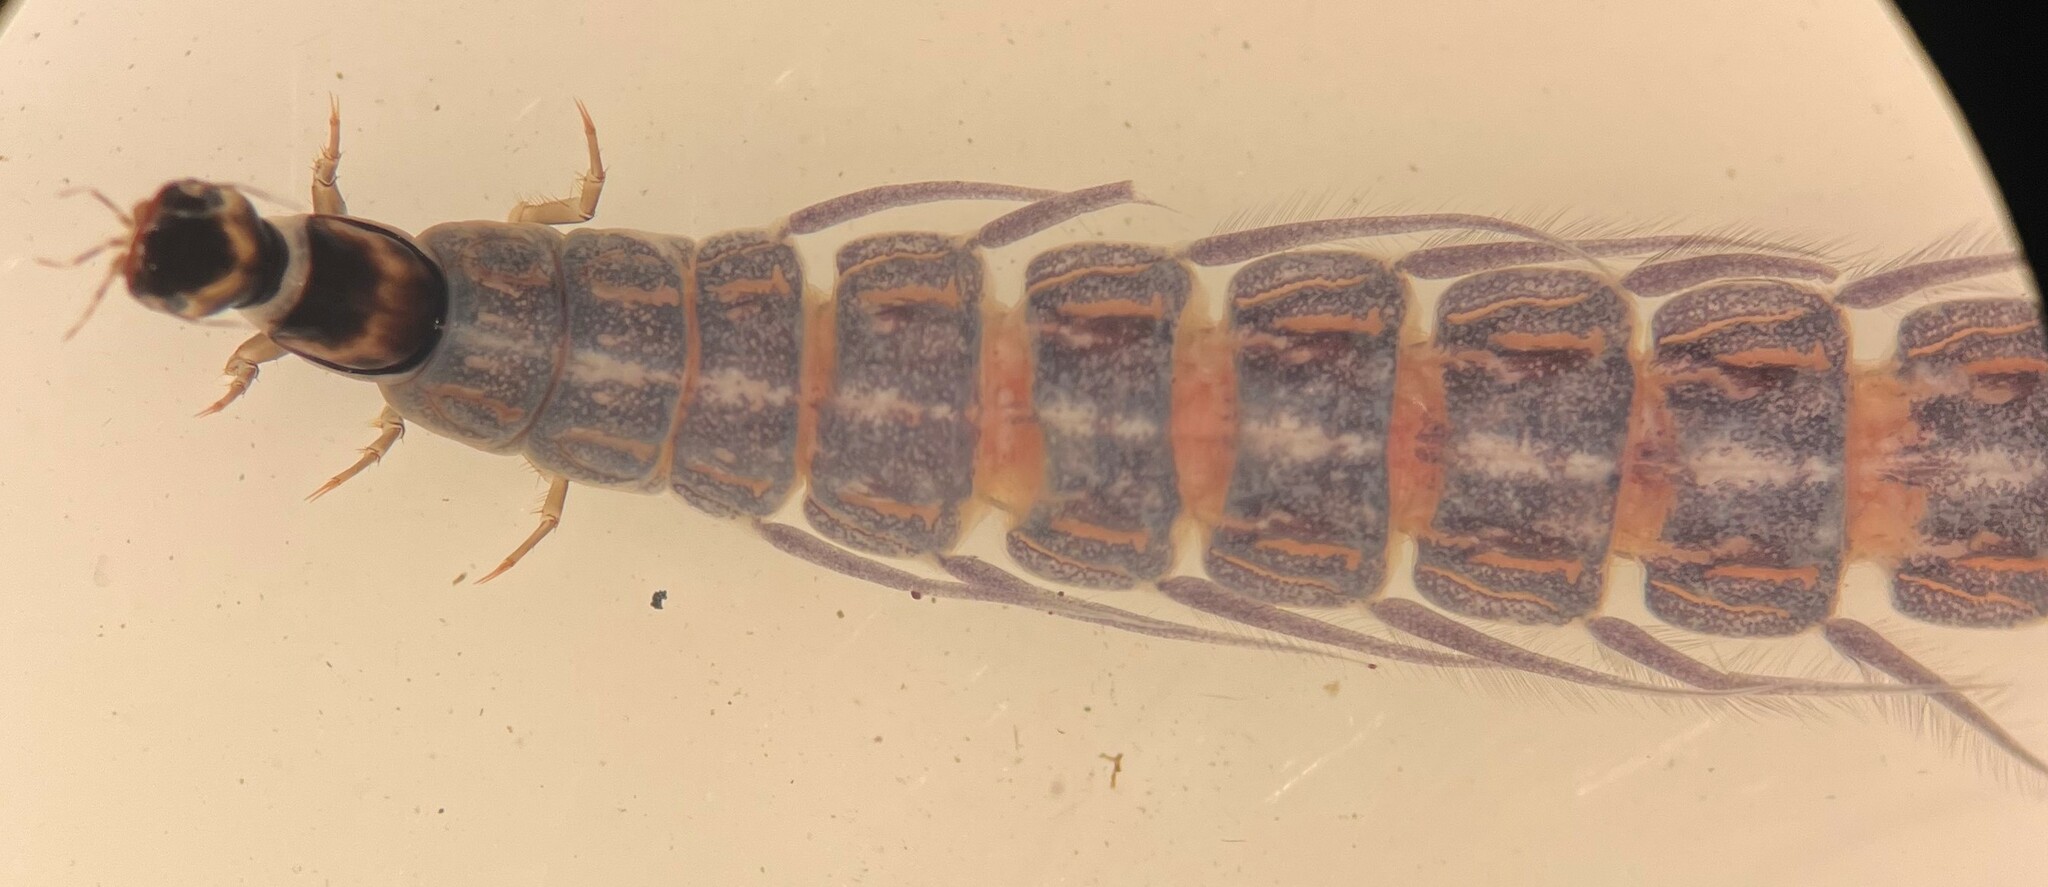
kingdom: Animalia
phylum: Arthropoda
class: Insecta
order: Coleoptera
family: Gyrinidae
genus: Dineutus
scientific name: Dineutus
